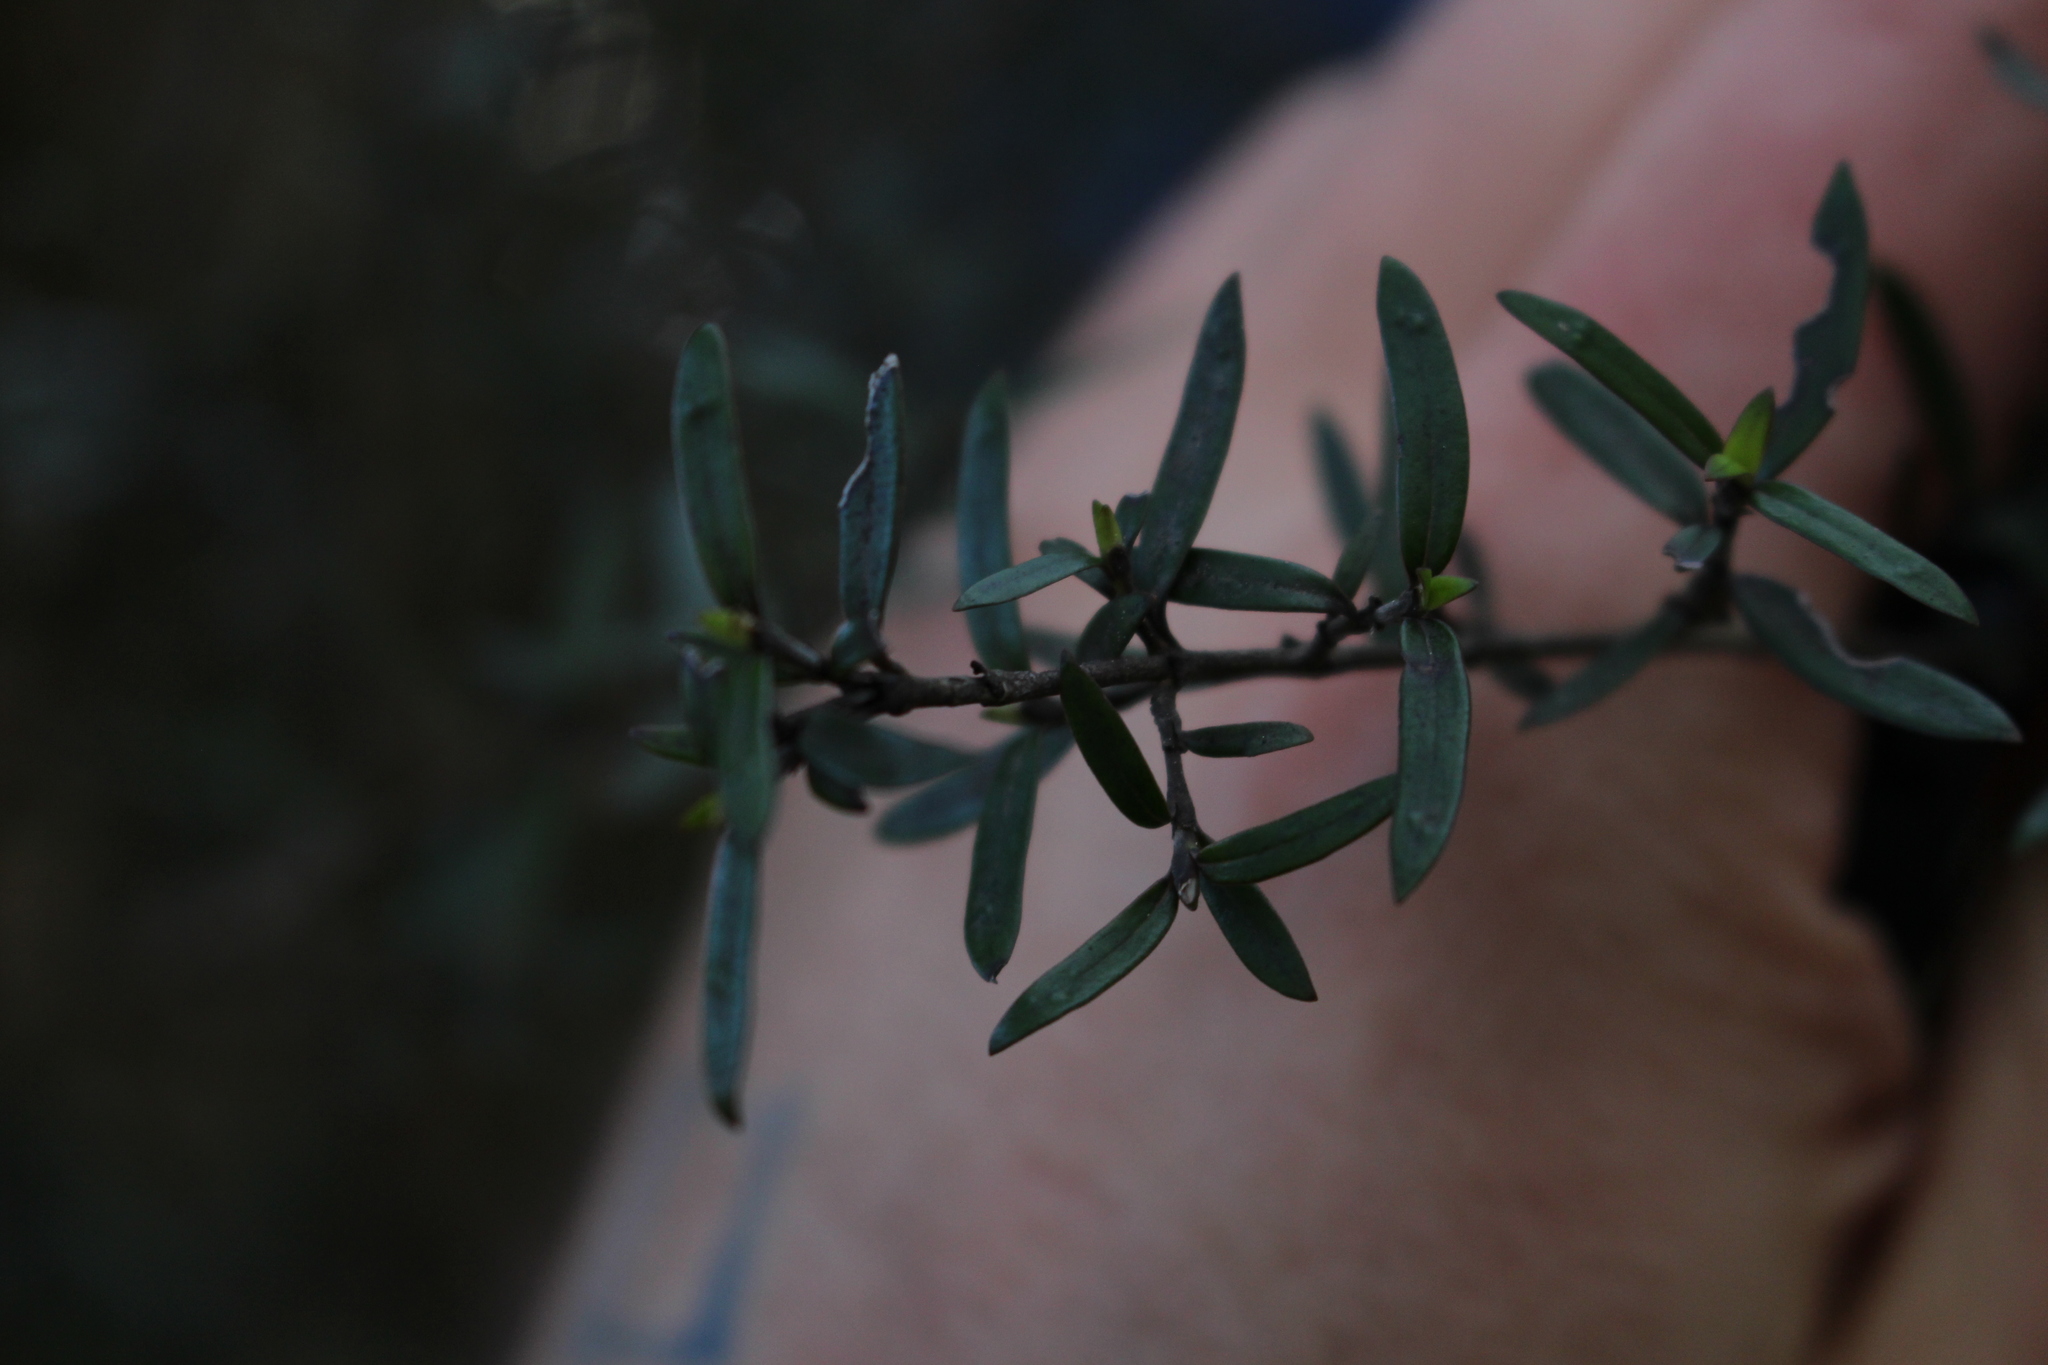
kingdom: Plantae
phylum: Tracheophyta
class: Magnoliopsida
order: Gentianales
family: Rubiaceae
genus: Coprosma
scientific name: Coprosma linariifolia
